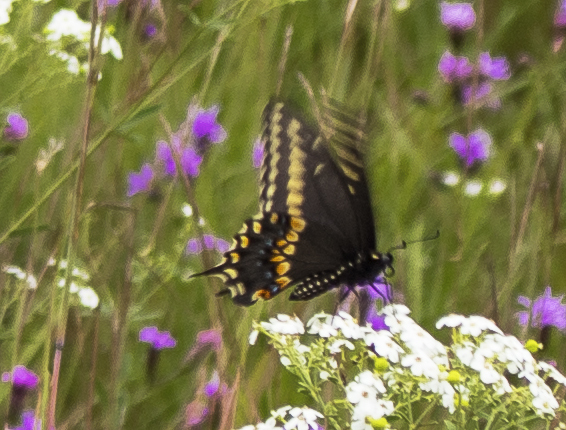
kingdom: Animalia
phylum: Arthropoda
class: Insecta
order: Lepidoptera
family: Papilionidae
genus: Papilio
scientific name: Papilio polyxenes
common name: Black swallowtail
